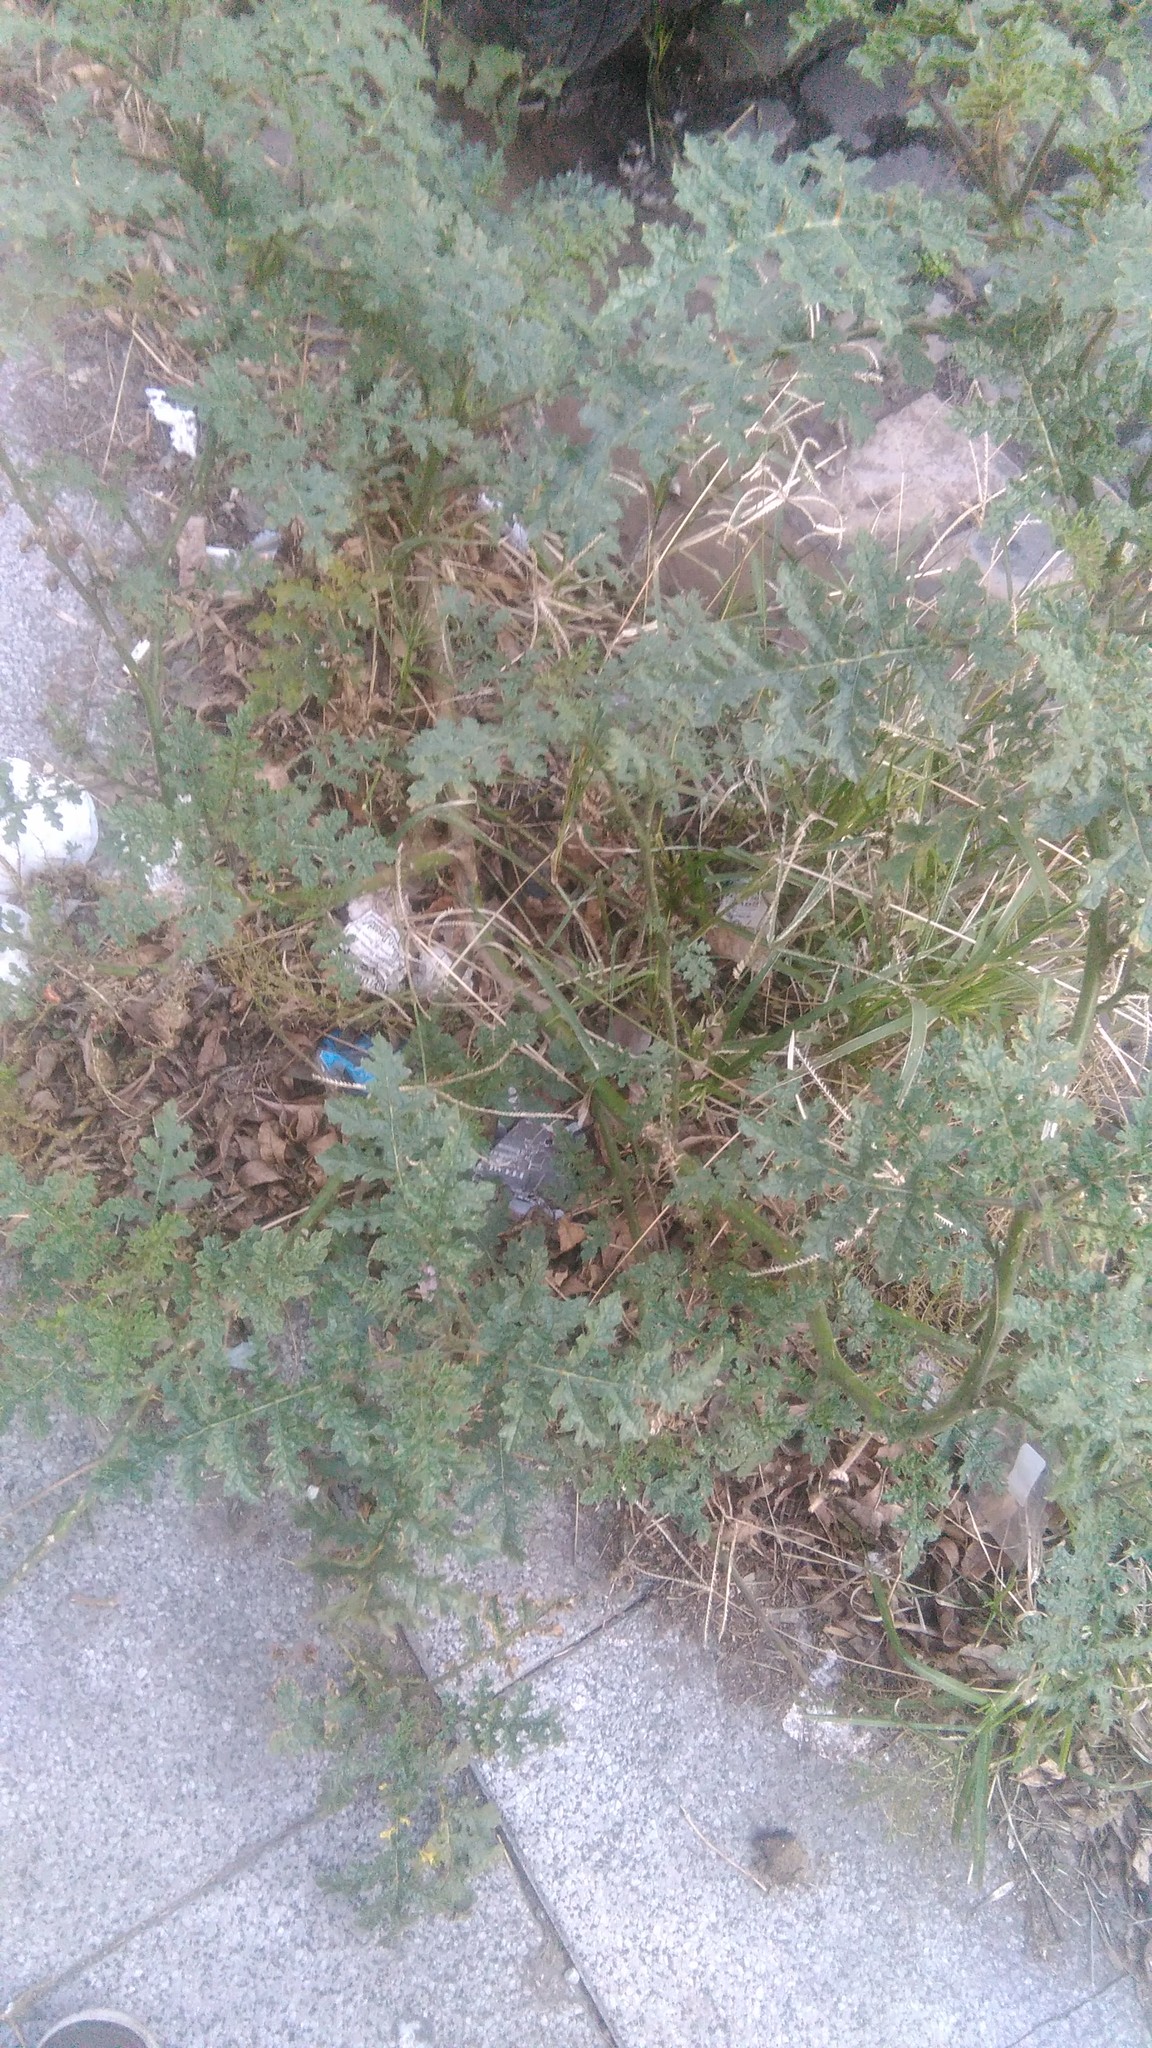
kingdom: Plantae
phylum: Tracheophyta
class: Magnoliopsida
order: Solanales
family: Solanaceae
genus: Solanum
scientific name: Solanum sisymbriifolium
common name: Red buffalo-bur
